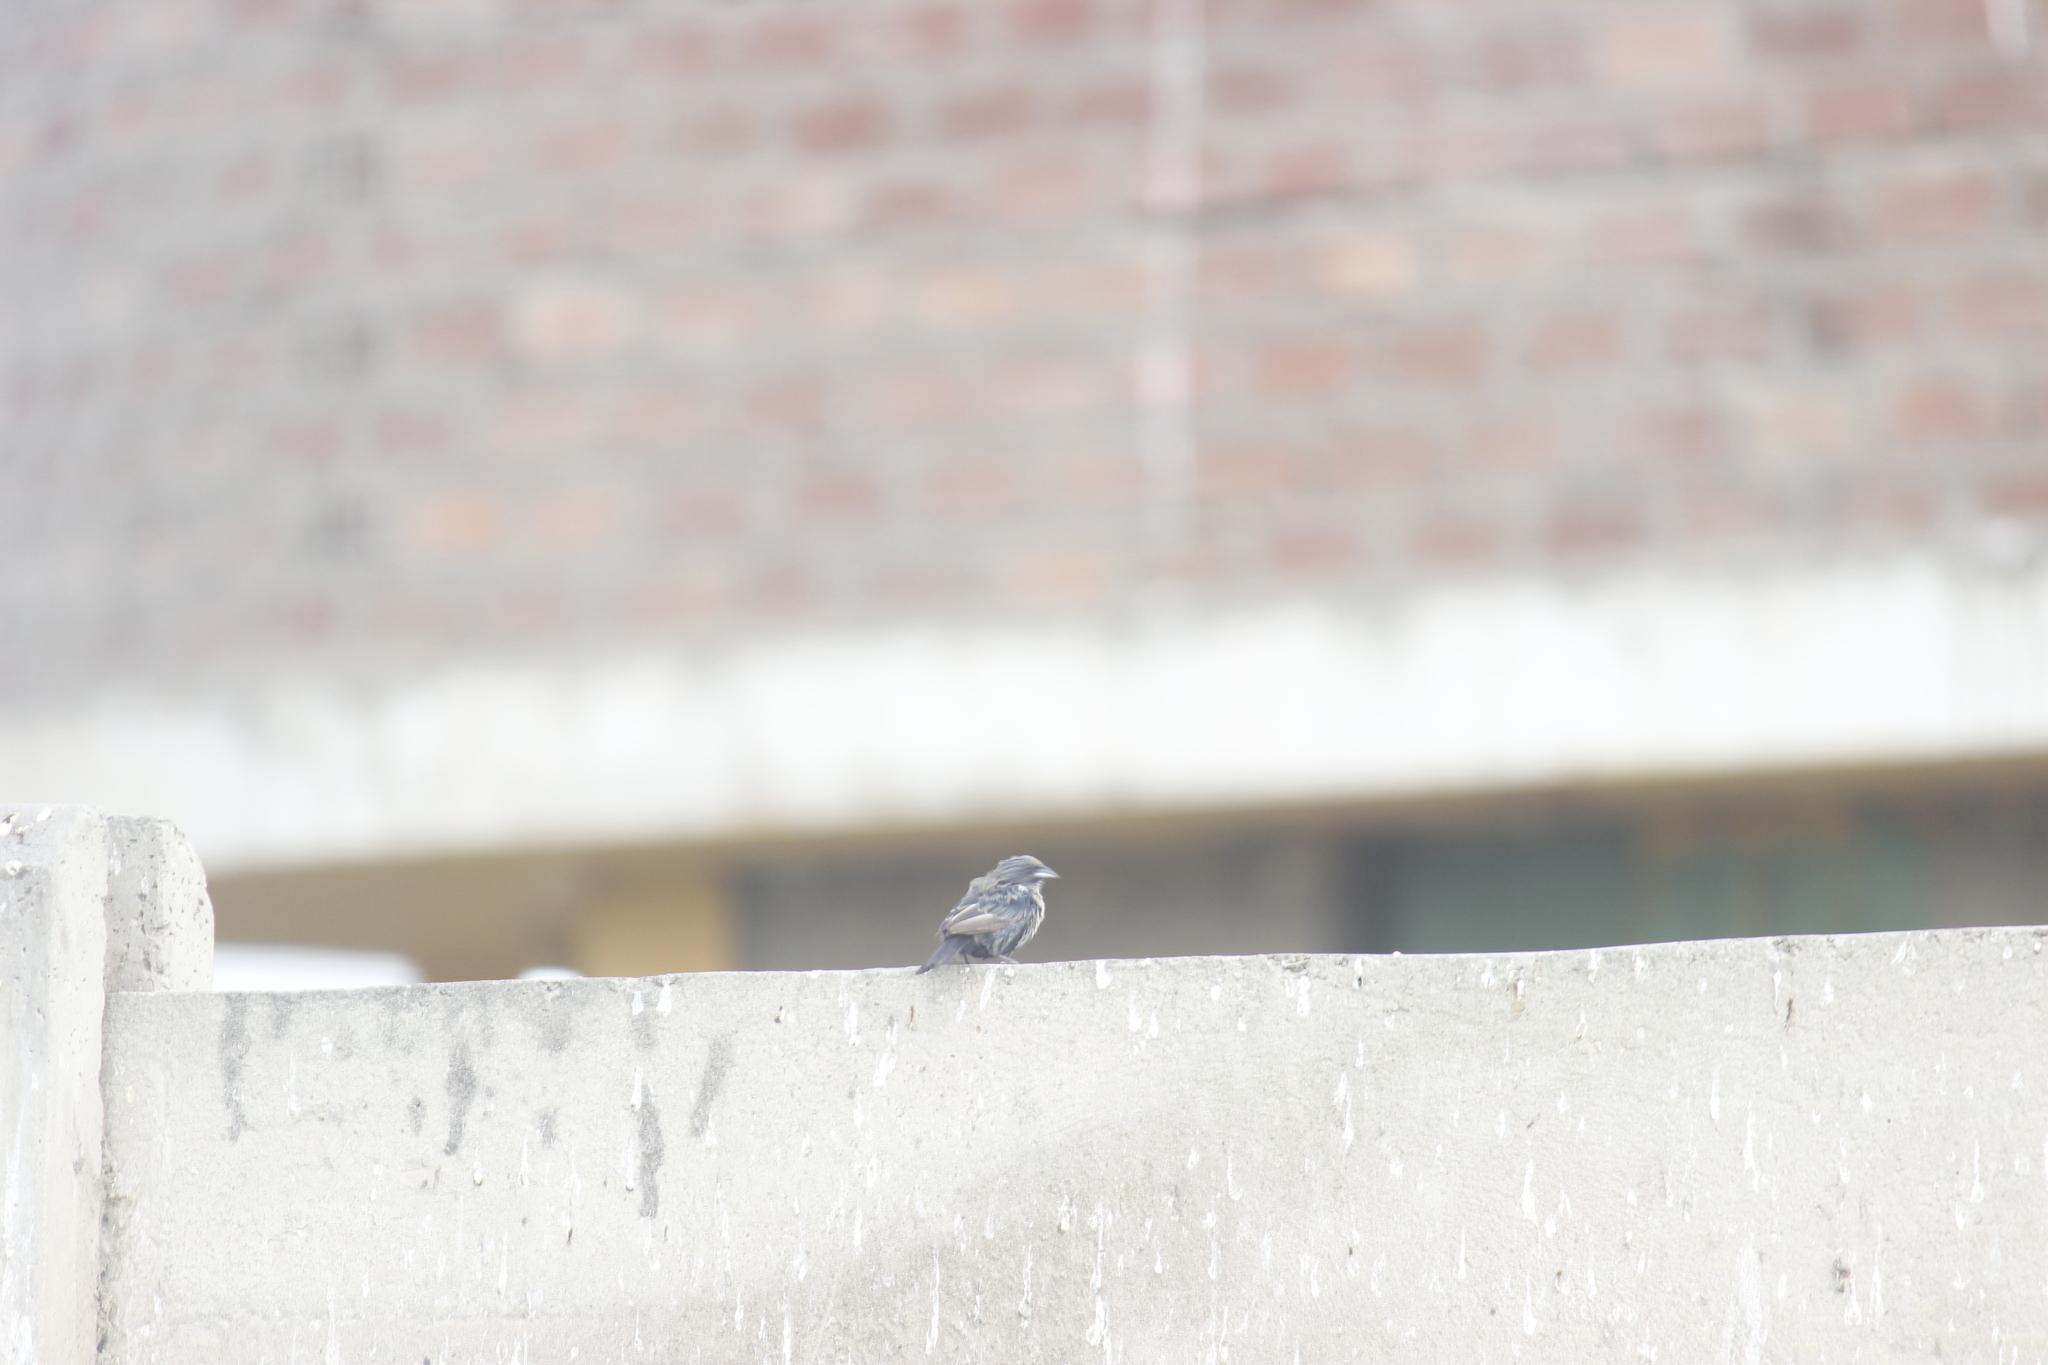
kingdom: Animalia
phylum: Chordata
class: Aves
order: Passeriformes
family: Thraupidae
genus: Volatinia
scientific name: Volatinia jacarina
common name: Blue-black grassquit
